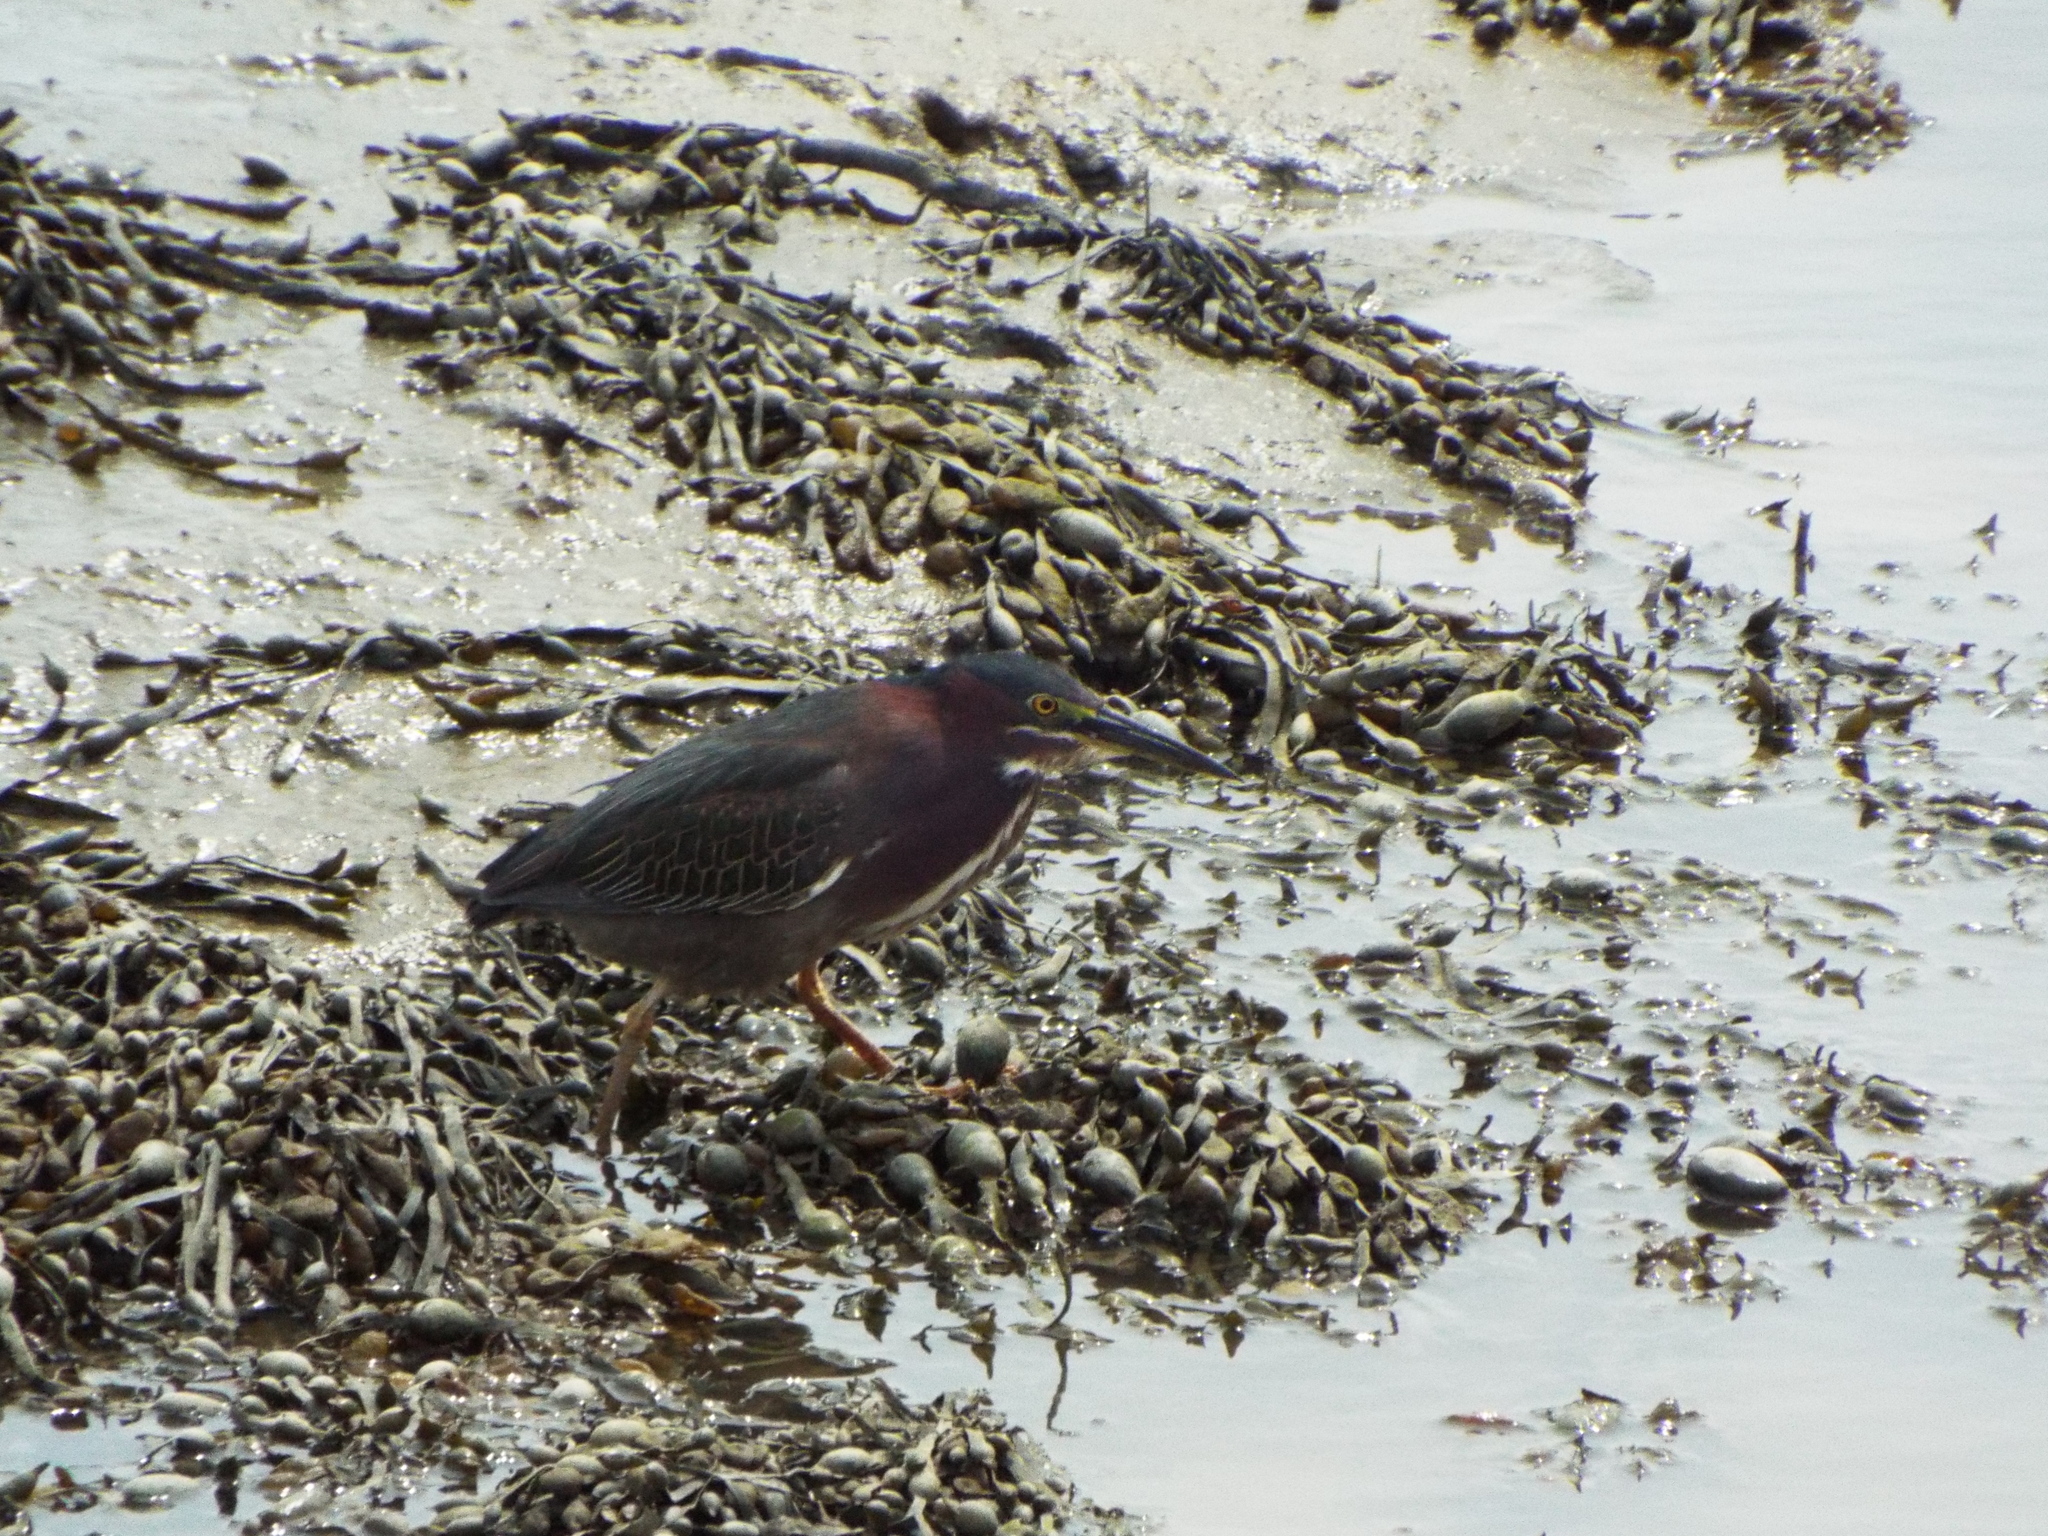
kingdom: Animalia
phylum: Chordata
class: Aves
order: Pelecaniformes
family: Ardeidae
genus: Butorides
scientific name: Butorides virescens
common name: Green heron
